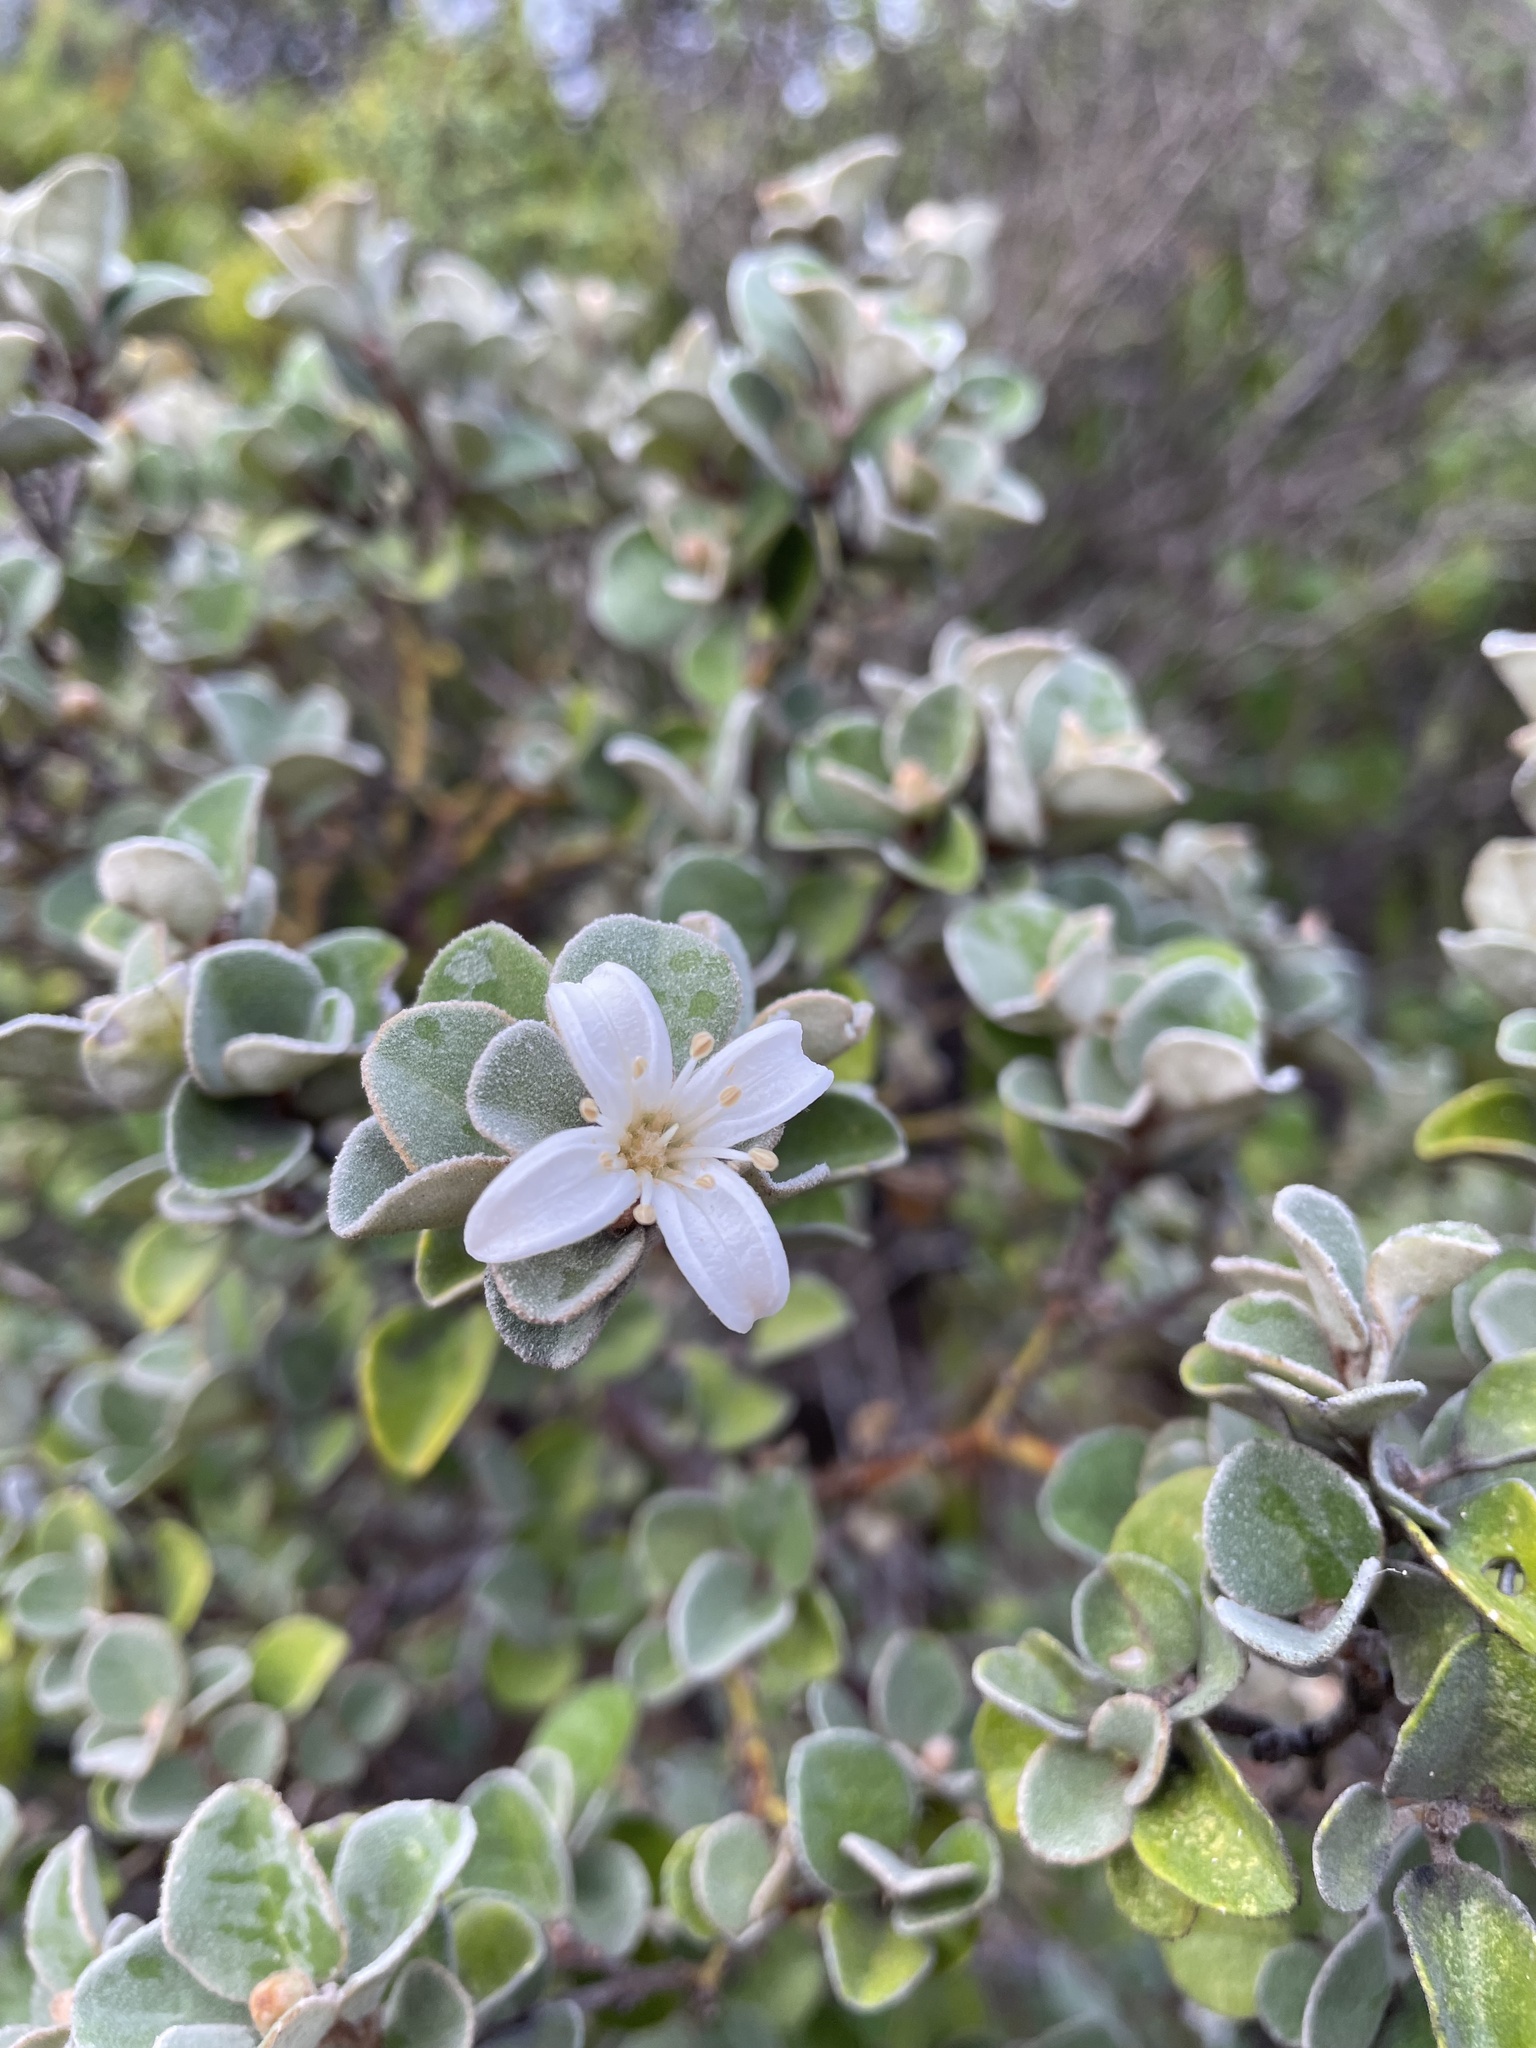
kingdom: Plantae
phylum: Tracheophyta
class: Magnoliopsida
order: Sapindales
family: Rutaceae
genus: Correa
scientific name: Correa alba
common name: White correa
